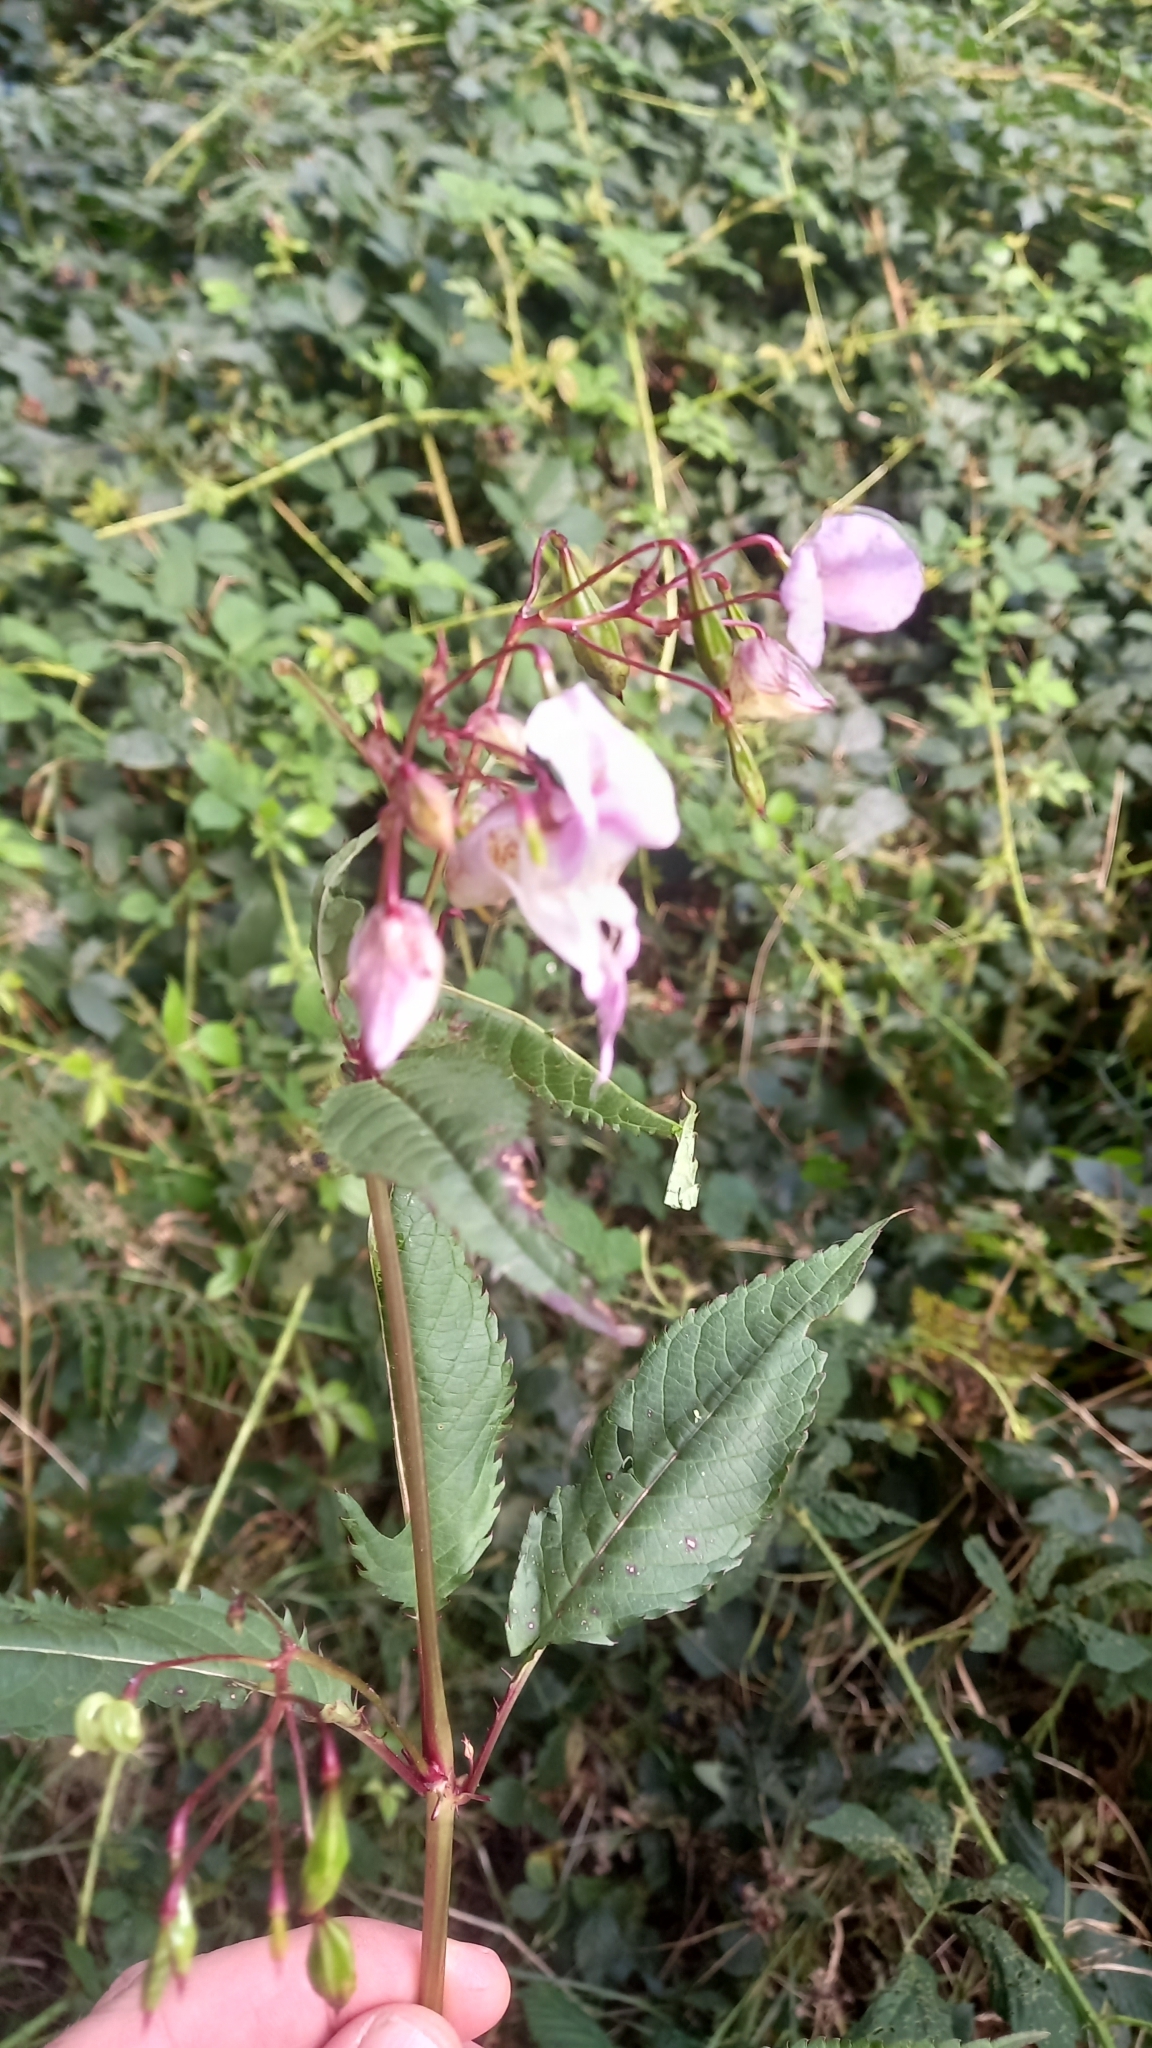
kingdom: Plantae
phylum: Tracheophyta
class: Magnoliopsida
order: Ericales
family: Balsaminaceae
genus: Impatiens
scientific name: Impatiens glandulifera
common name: Himalayan balsam
